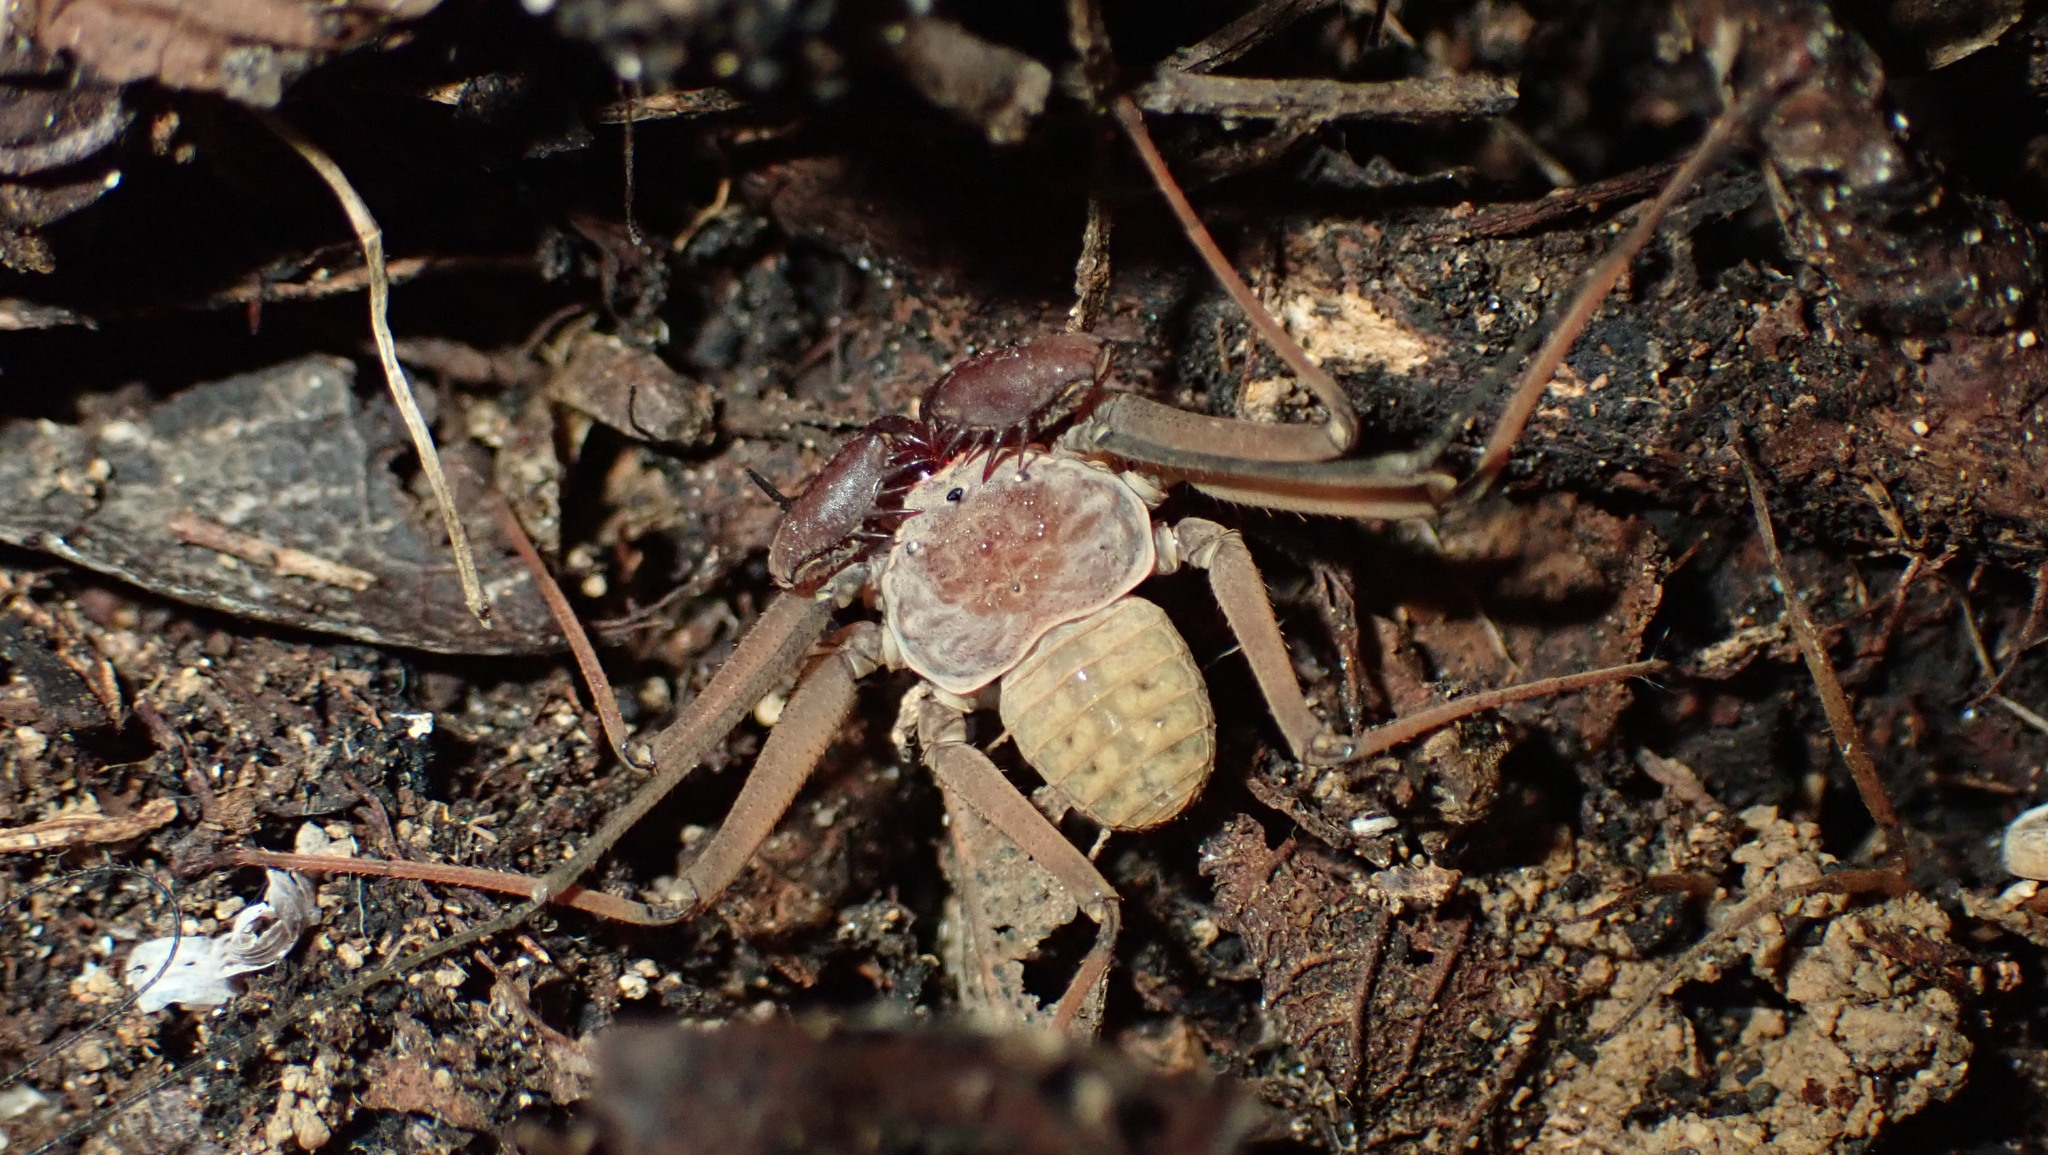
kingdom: Animalia
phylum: Arthropoda
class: Arachnida
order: Amblypygi
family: Phrynidae
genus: Phrynus
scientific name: Phrynus alejandroi
